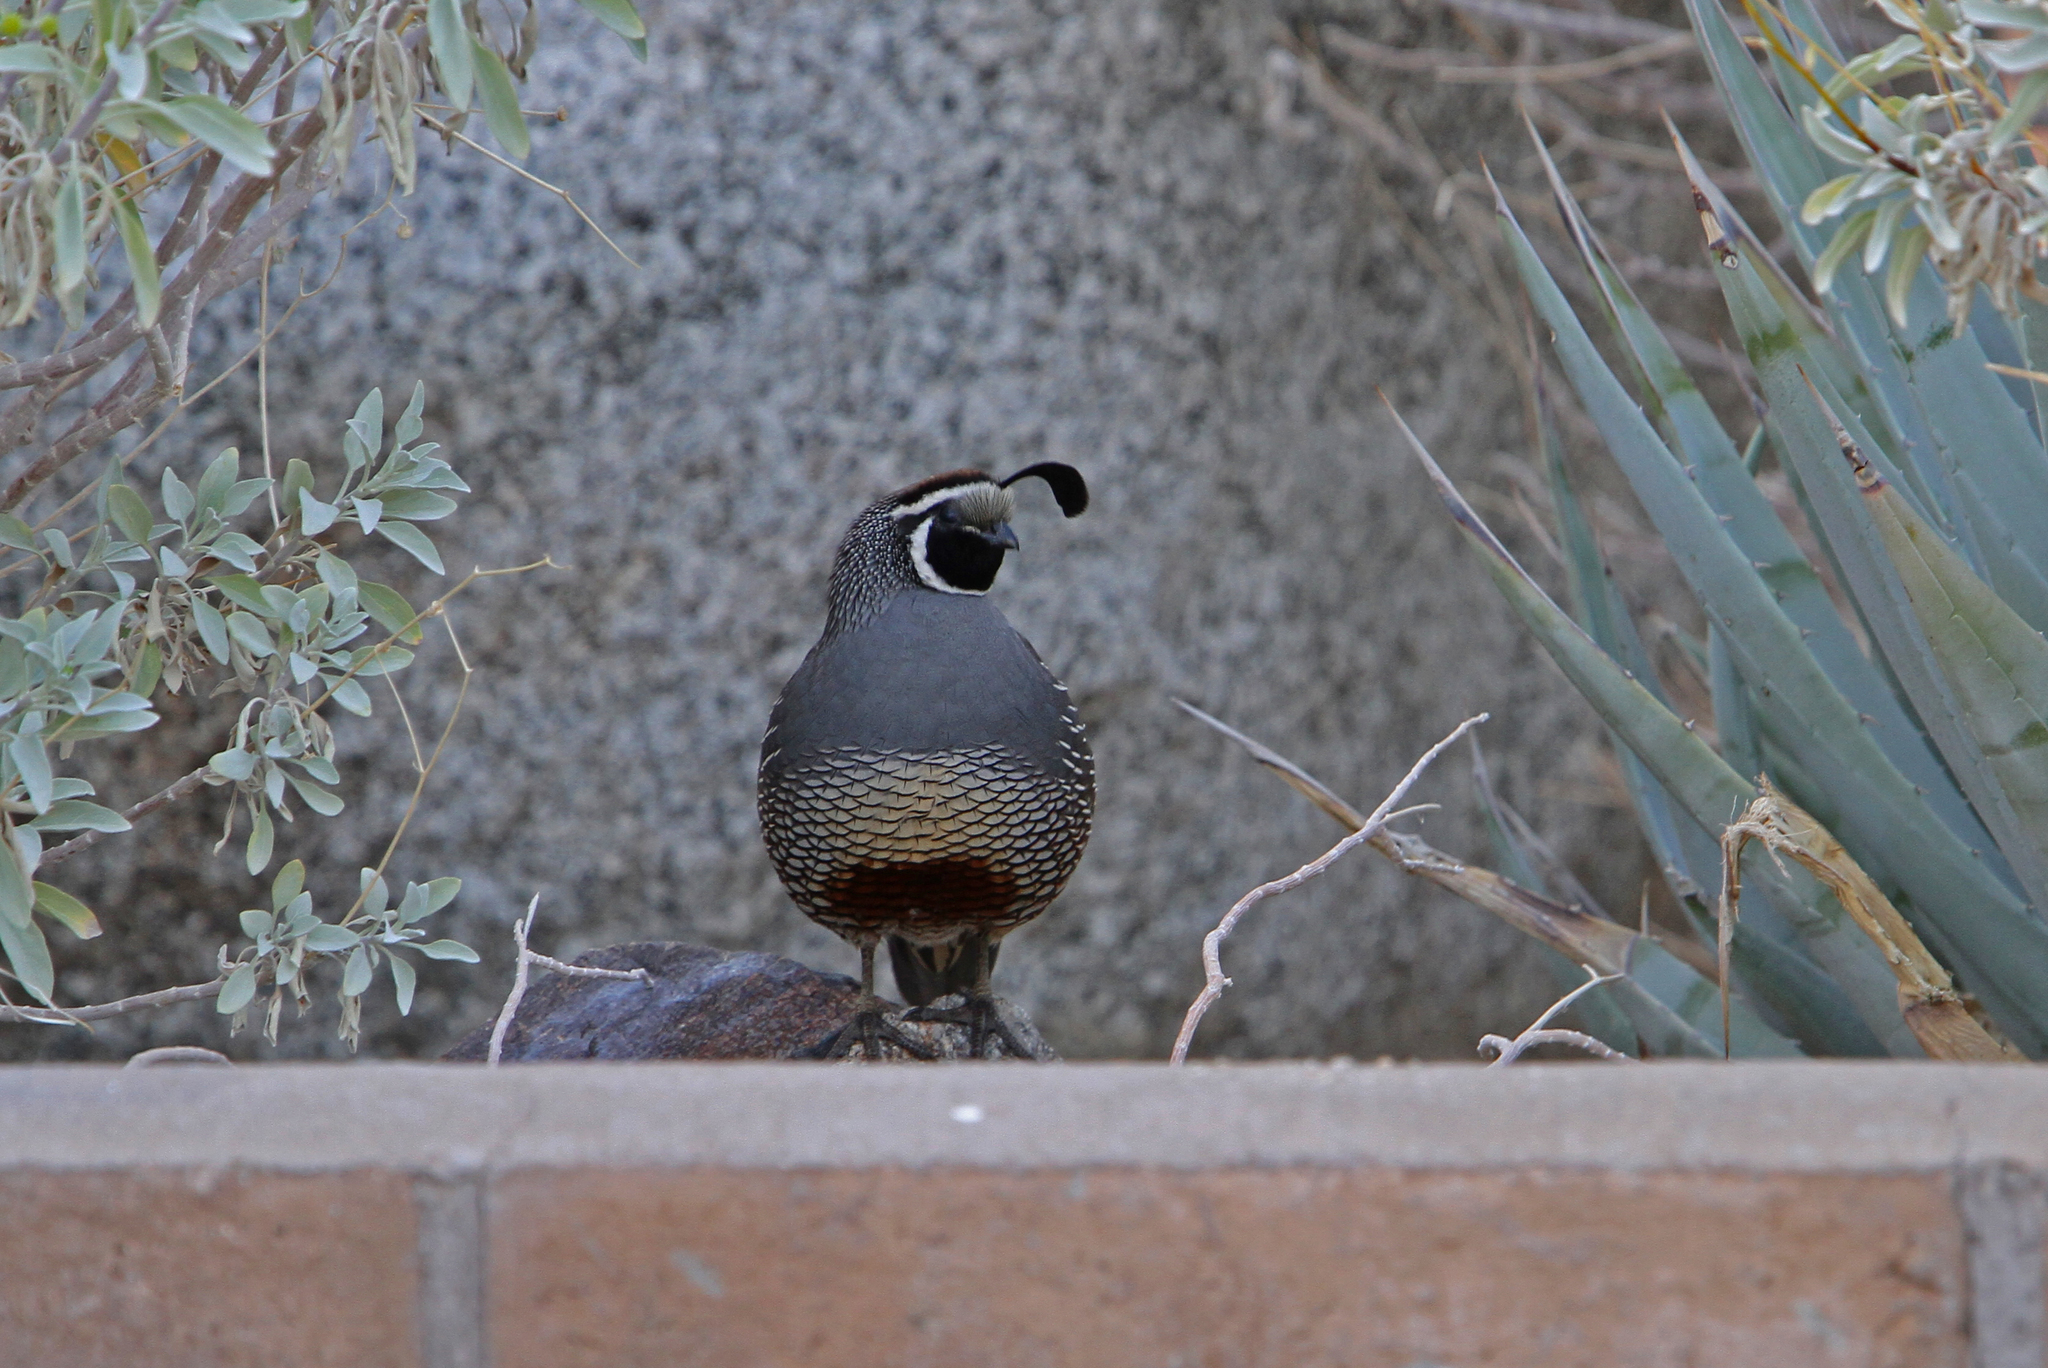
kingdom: Animalia
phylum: Chordata
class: Aves
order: Galliformes
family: Odontophoridae
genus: Callipepla
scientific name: Callipepla californica
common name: California quail
